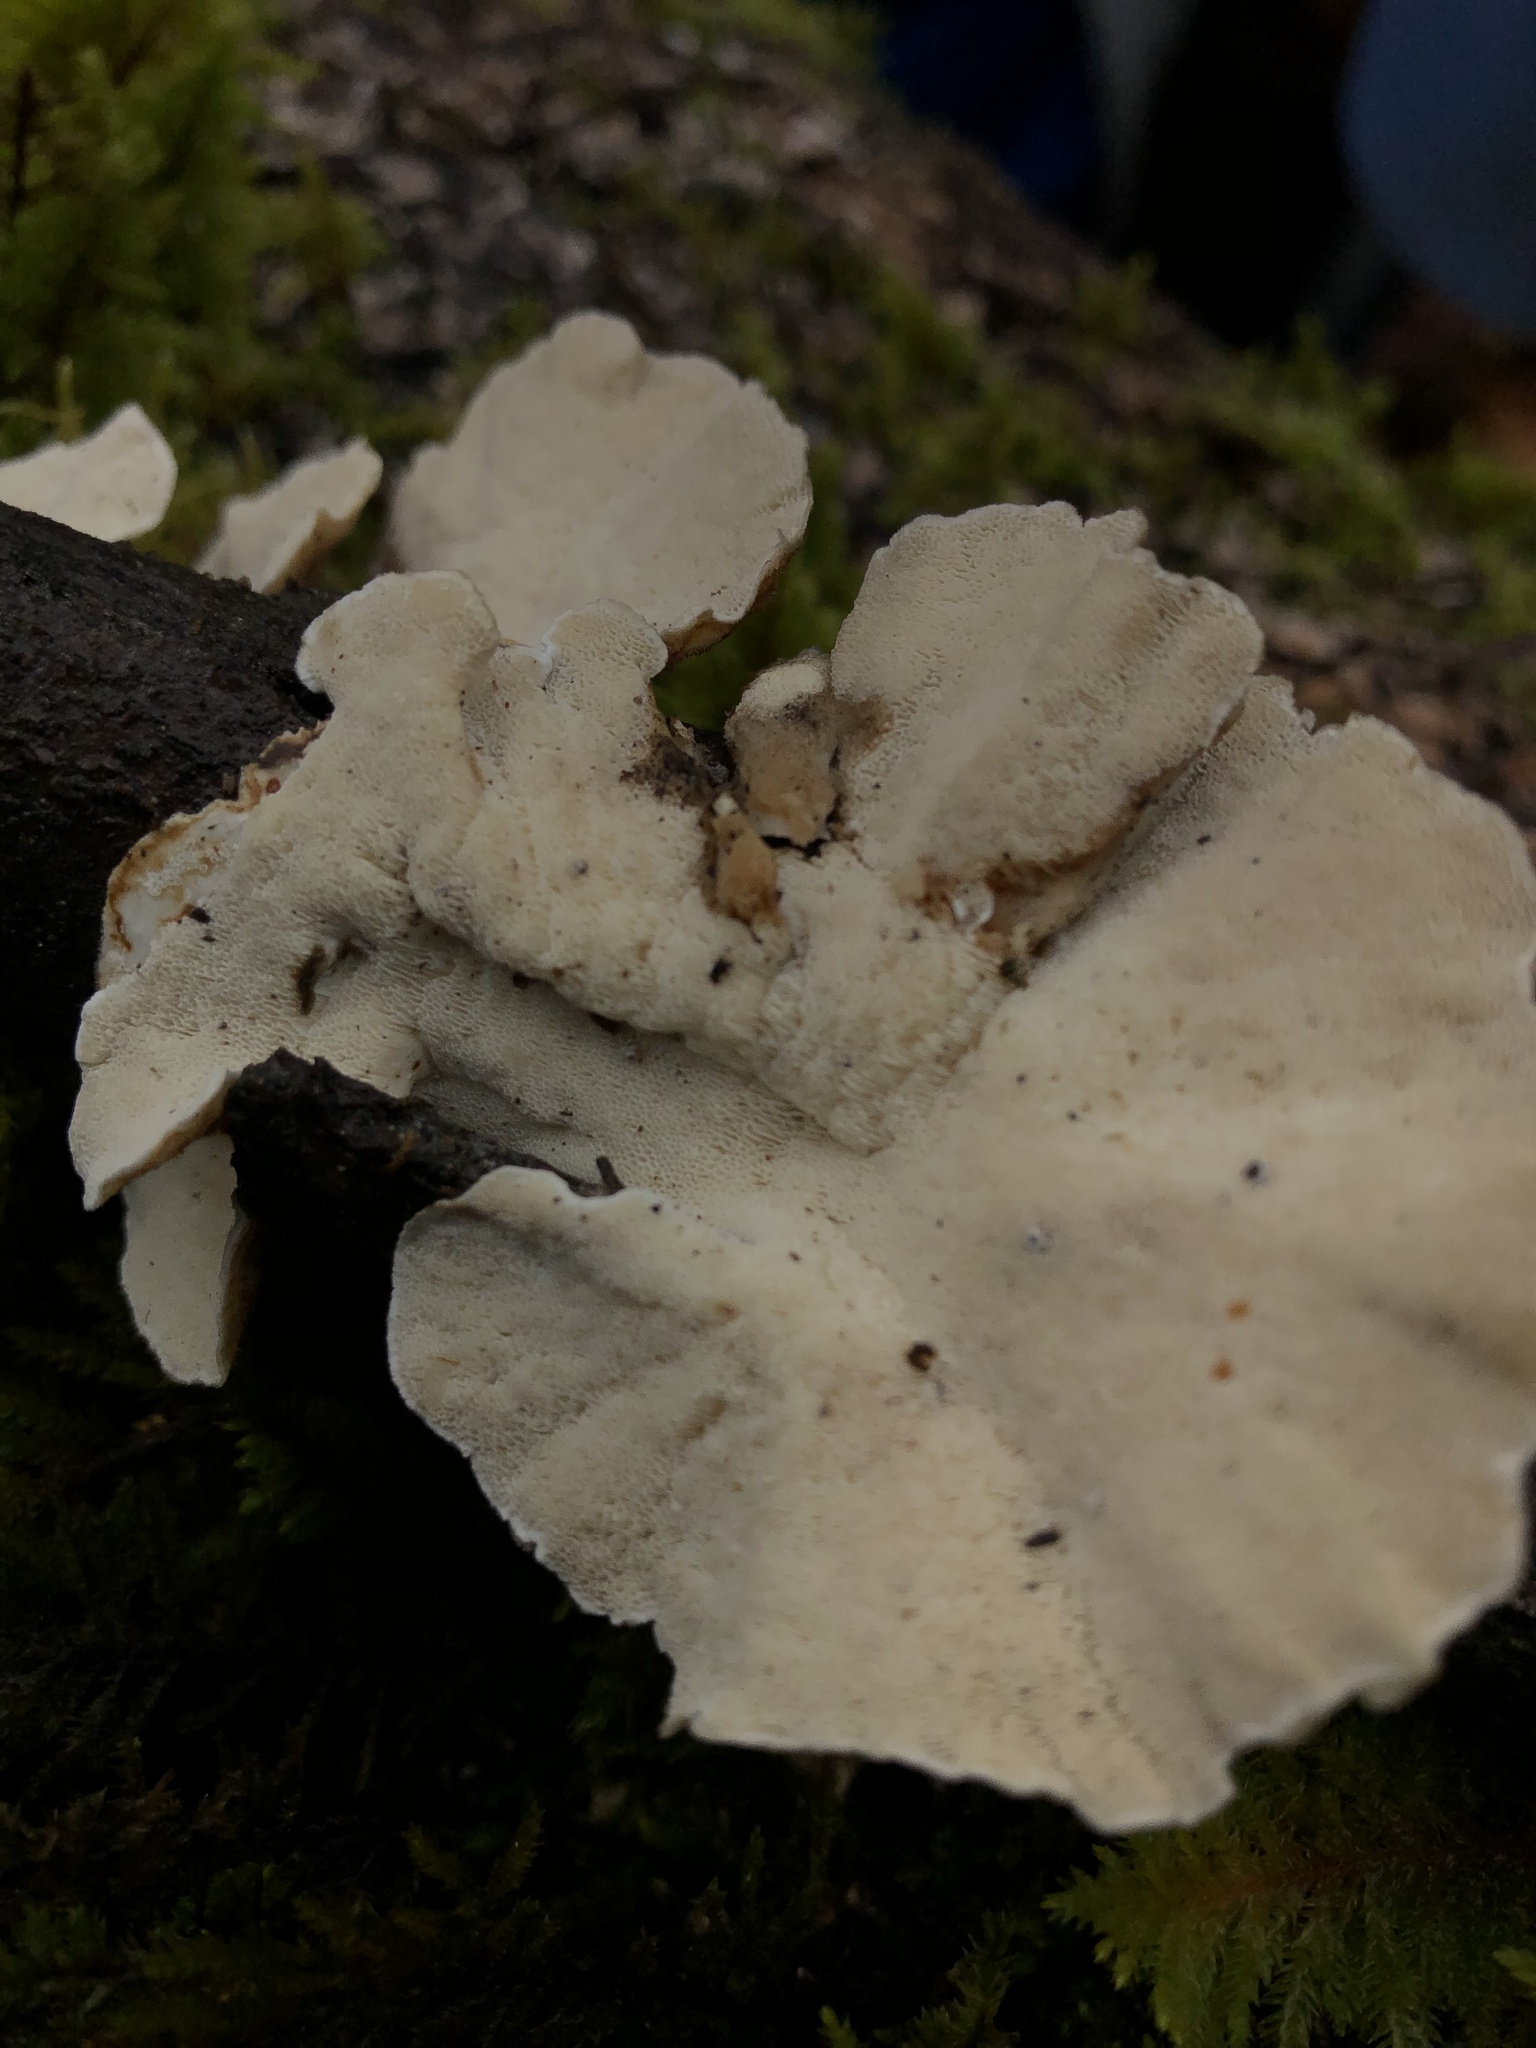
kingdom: Fungi
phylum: Basidiomycota
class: Agaricomycetes
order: Polyporales
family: Polyporaceae
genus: Trametes
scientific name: Trametes versicolor
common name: Turkeytail
